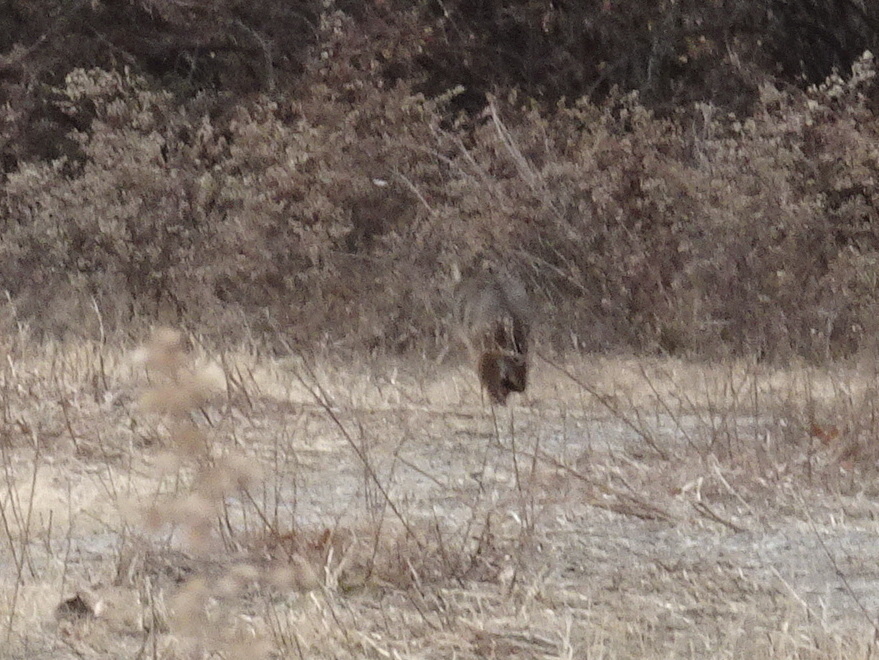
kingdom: Animalia
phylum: Chordata
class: Mammalia
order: Carnivora
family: Felidae
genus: Lynx
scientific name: Lynx rufus
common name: Bobcat
